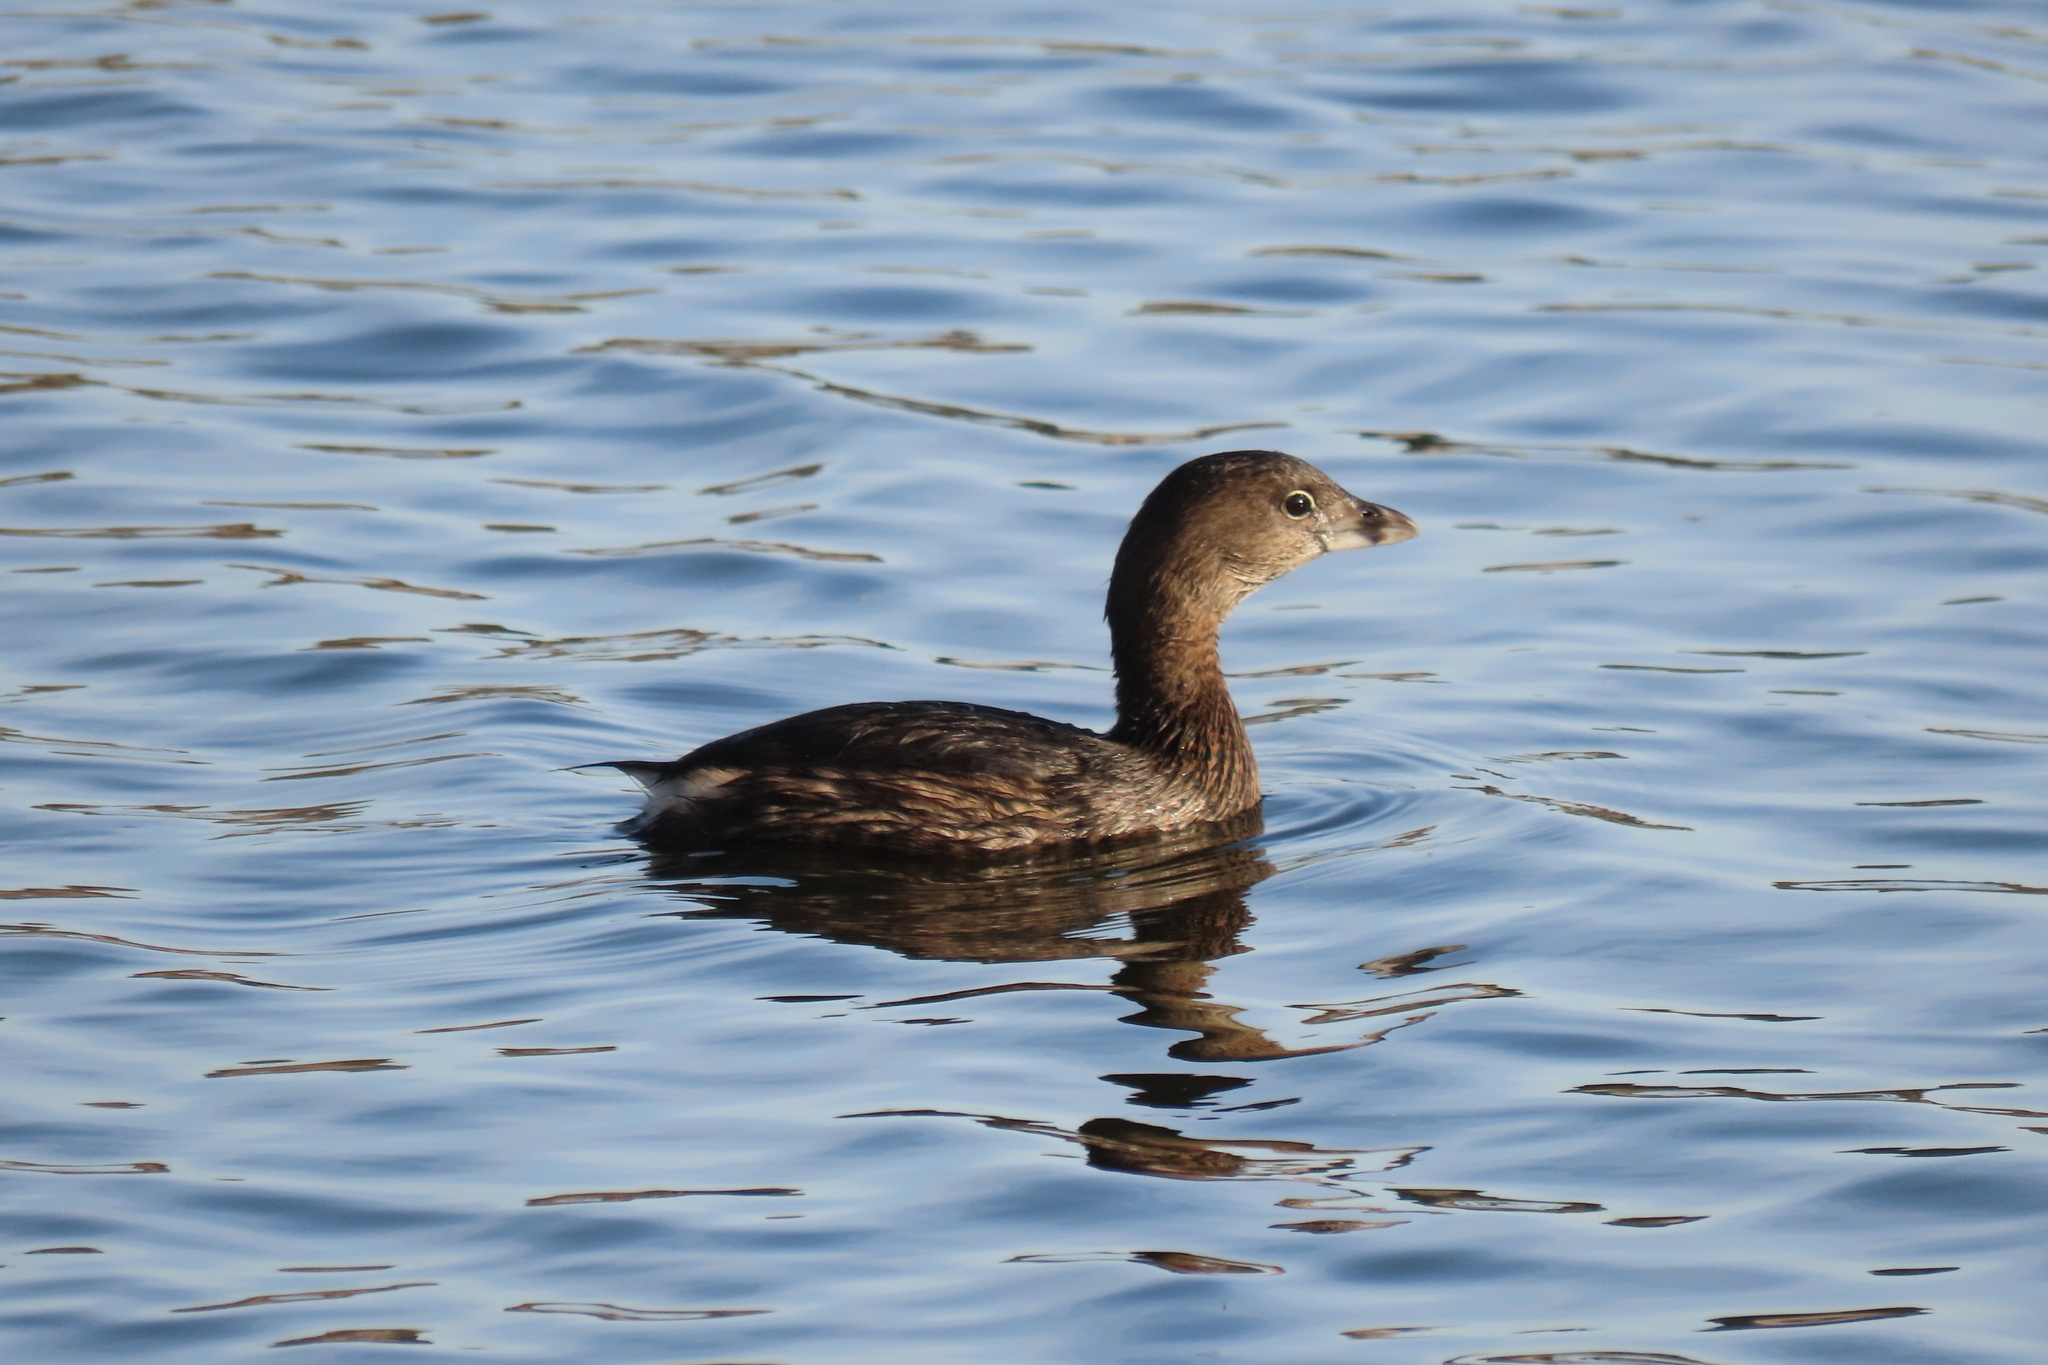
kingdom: Animalia
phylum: Chordata
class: Aves
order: Podicipediformes
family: Podicipedidae
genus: Podilymbus
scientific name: Podilymbus podiceps
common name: Pied-billed grebe
